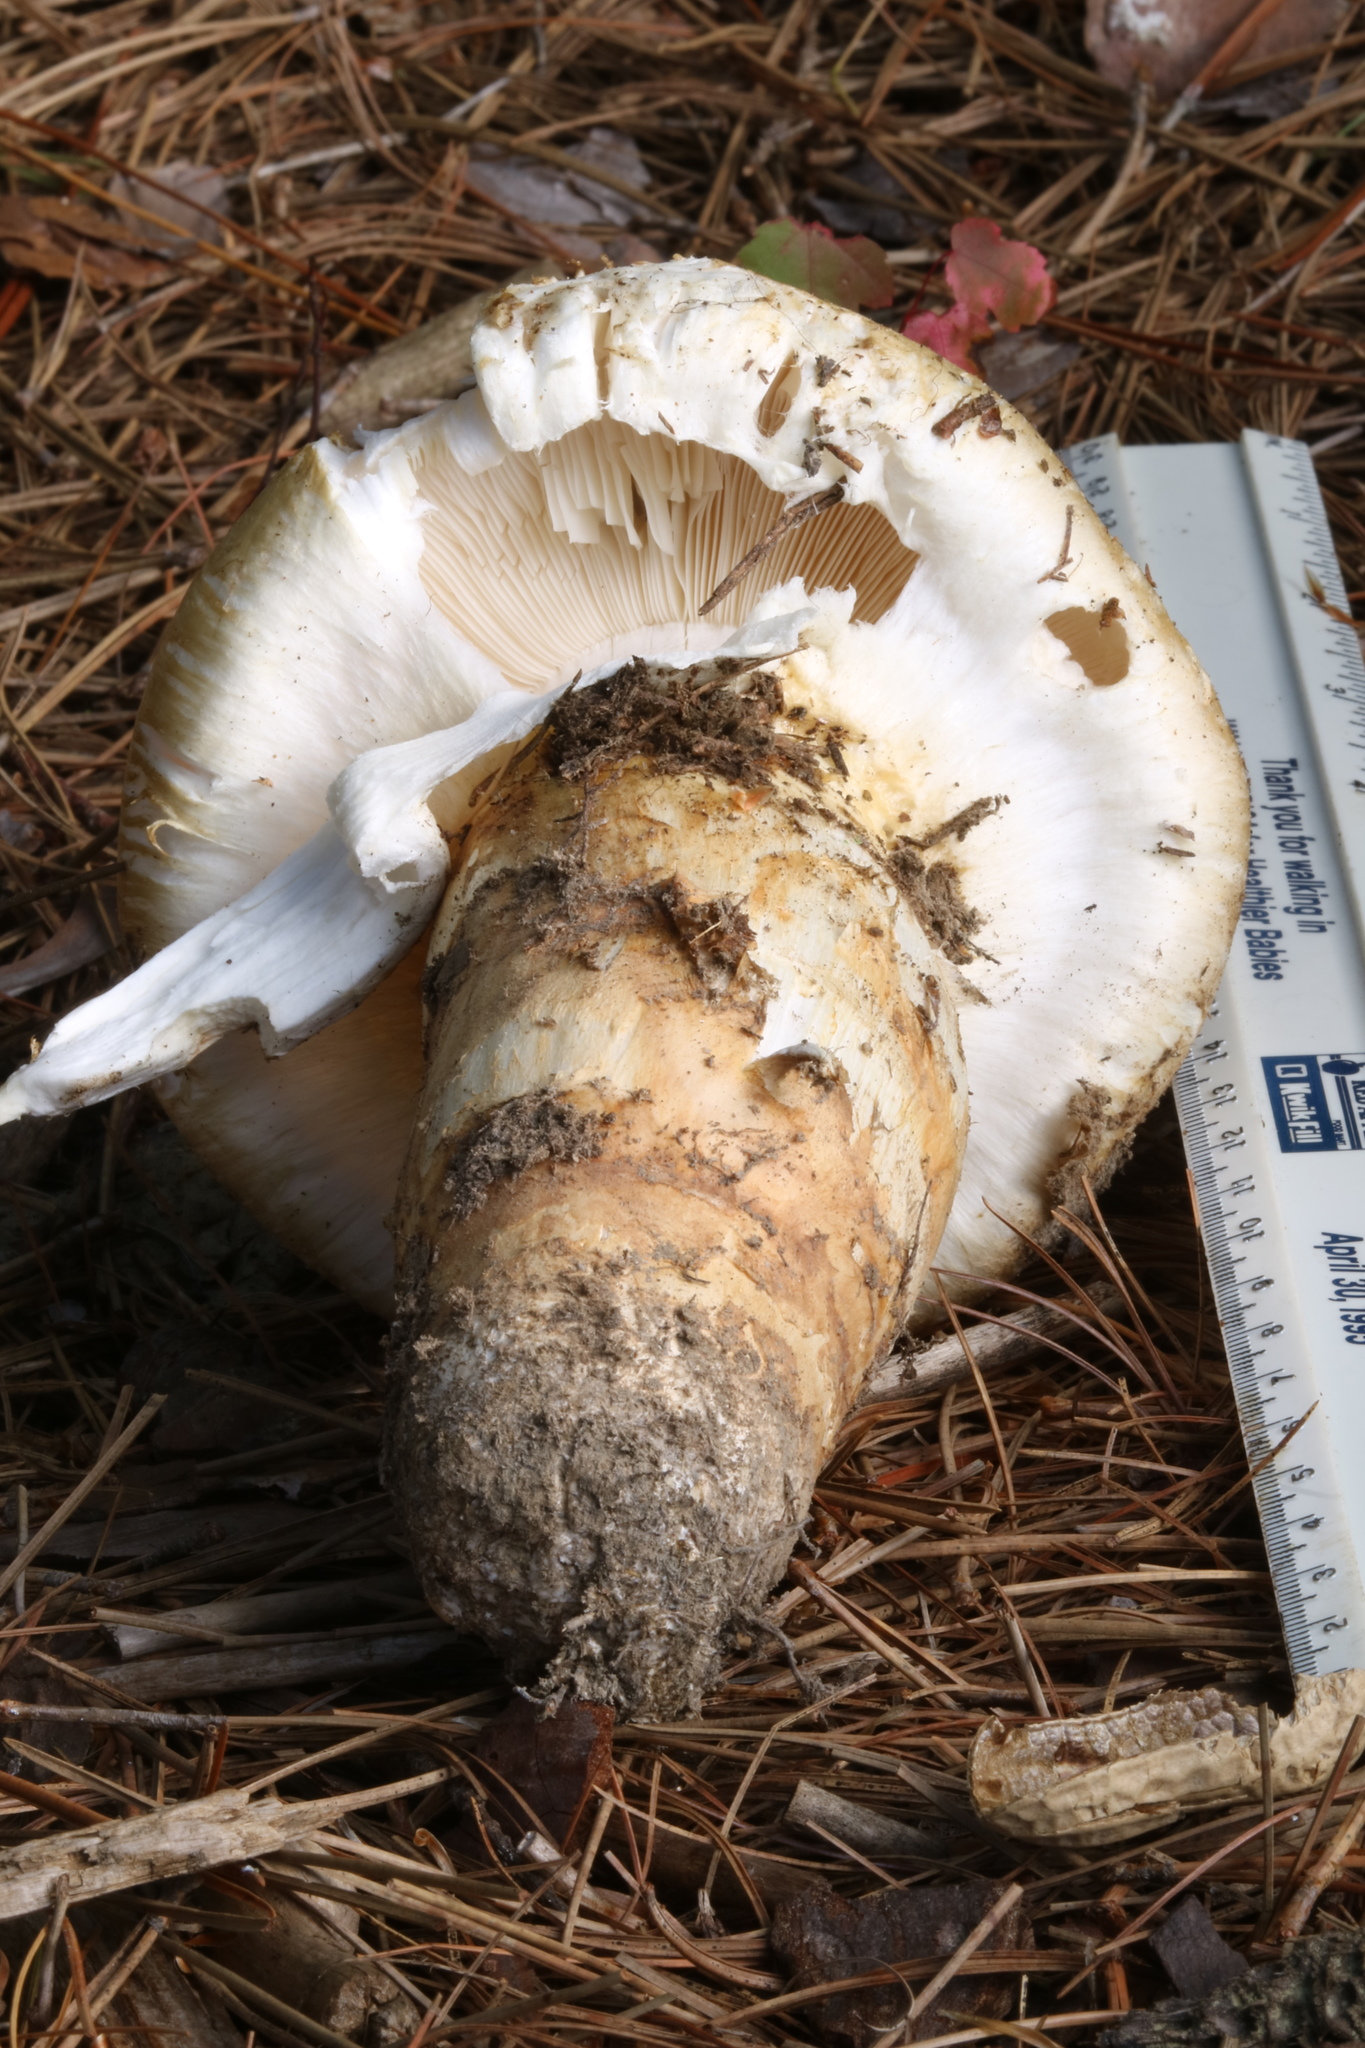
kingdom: Fungi
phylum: Basidiomycota
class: Agaricomycetes
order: Agaricales
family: Tricholomataceae
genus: Tricholoma
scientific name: Tricholoma magnivelare
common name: American matsutake
